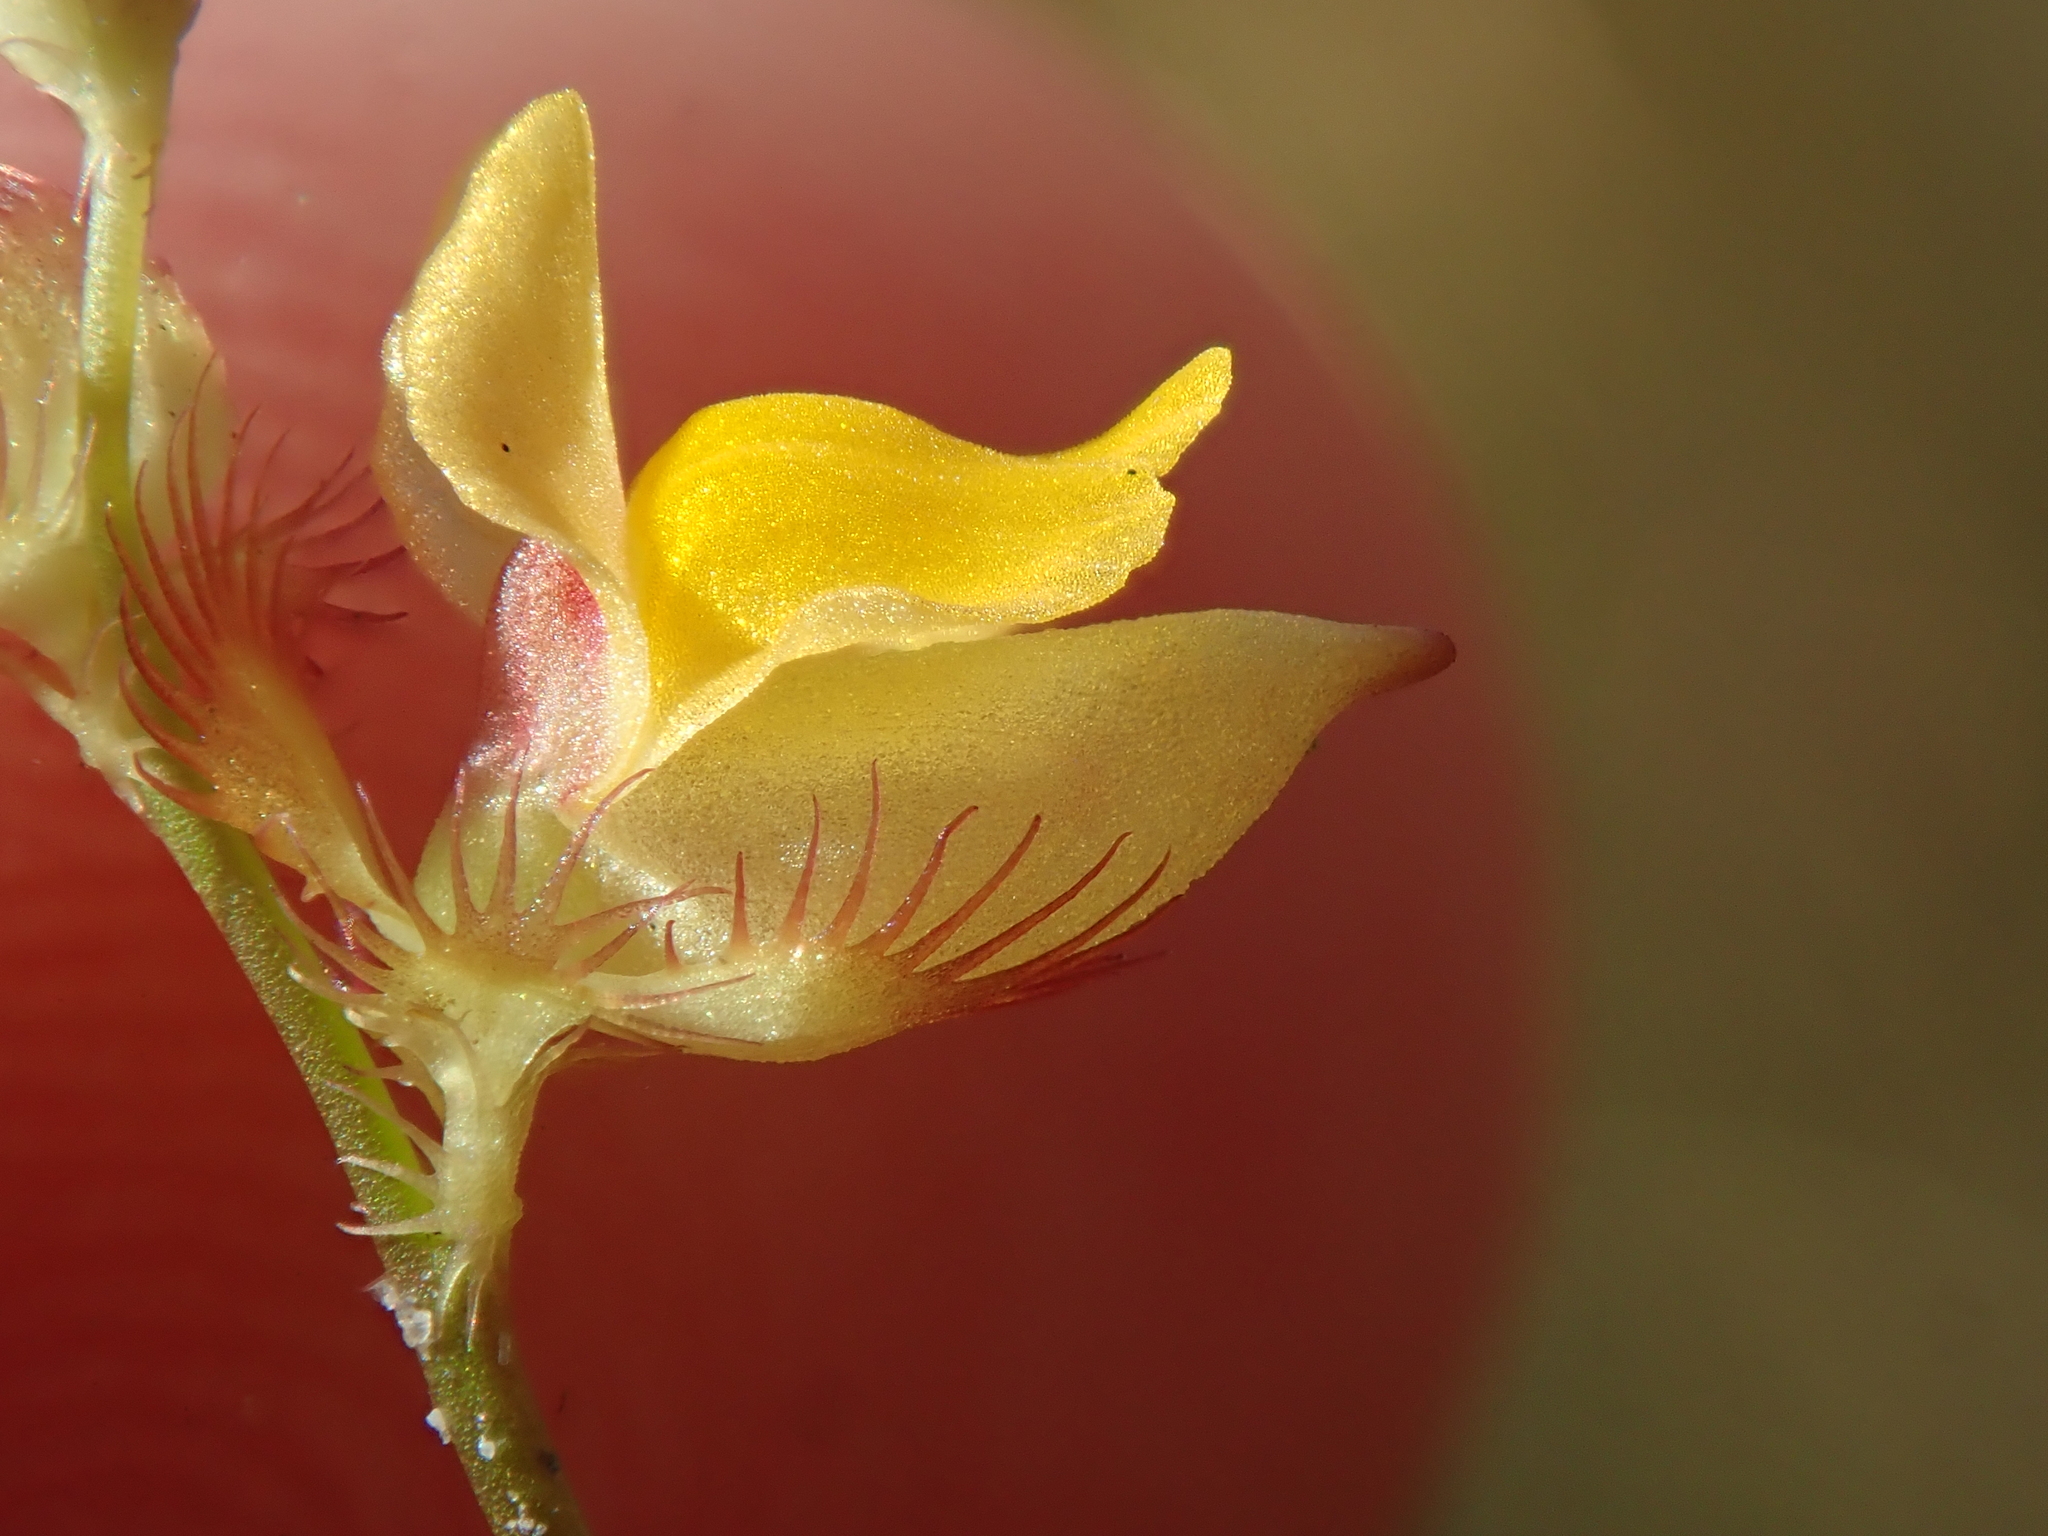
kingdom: Plantae
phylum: Tracheophyta
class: Magnoliopsida
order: Lamiales
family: Lentibulariaceae
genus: Utricularia
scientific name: Utricularia simulans
